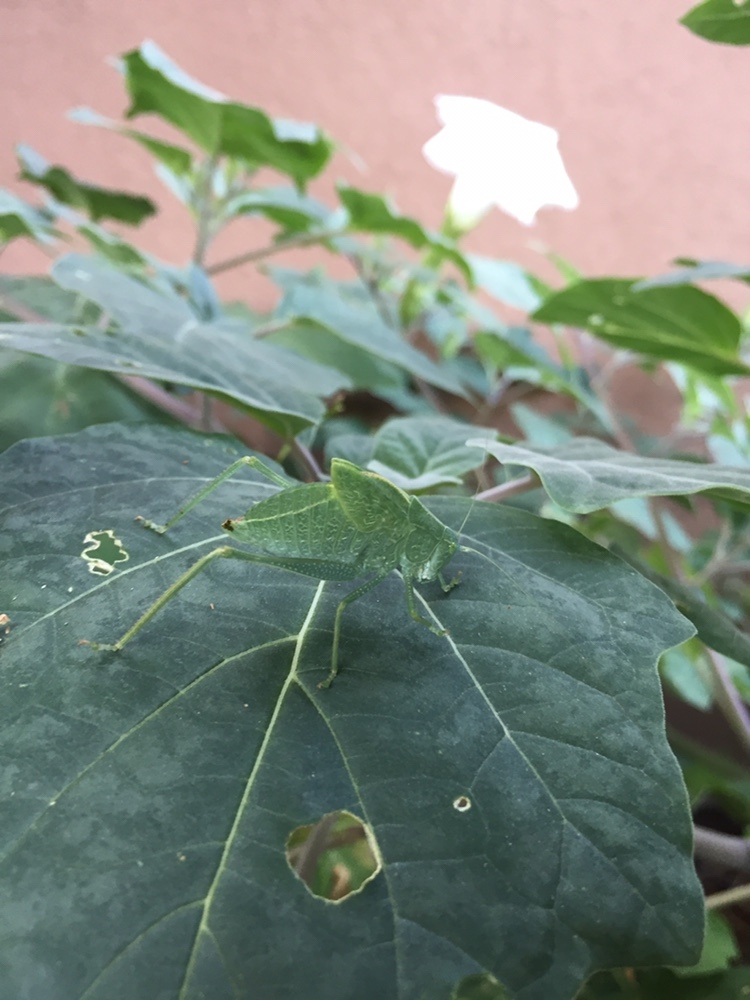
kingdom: Plantae
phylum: Tracheophyta
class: Magnoliopsida
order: Solanales
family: Solanaceae
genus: Datura
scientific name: Datura wrightii
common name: Sacred thorn-apple
